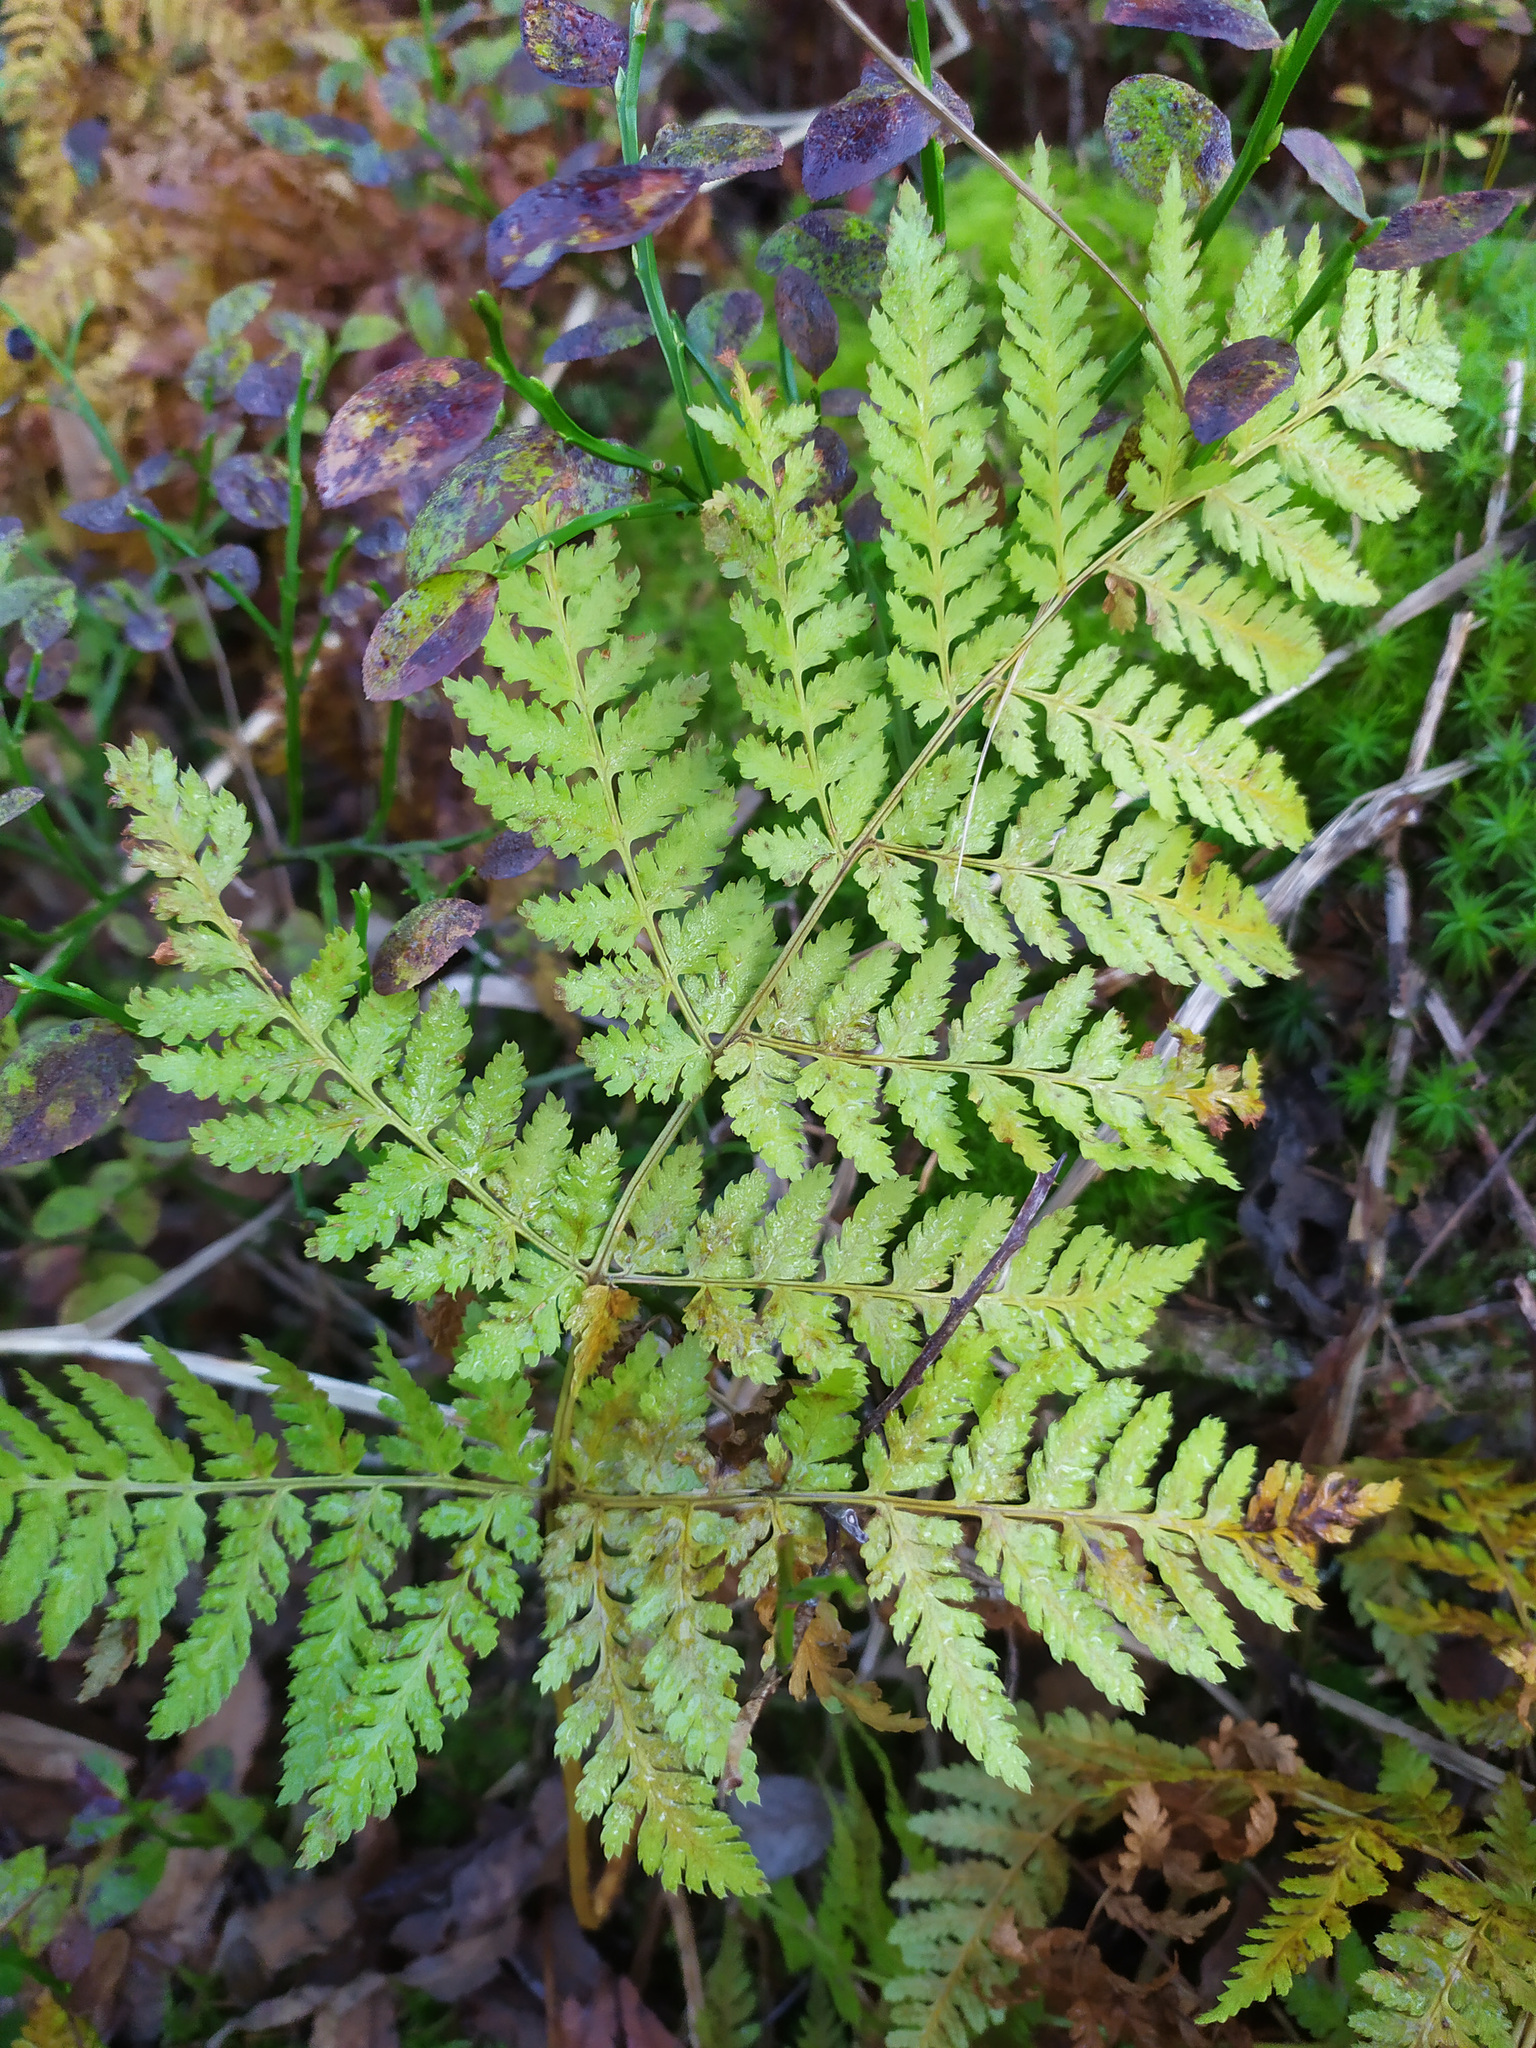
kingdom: Plantae
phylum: Tracheophyta
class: Polypodiopsida
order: Polypodiales
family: Dryopteridaceae
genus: Dryopteris
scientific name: Dryopteris expansa
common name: Northern buckler fern
